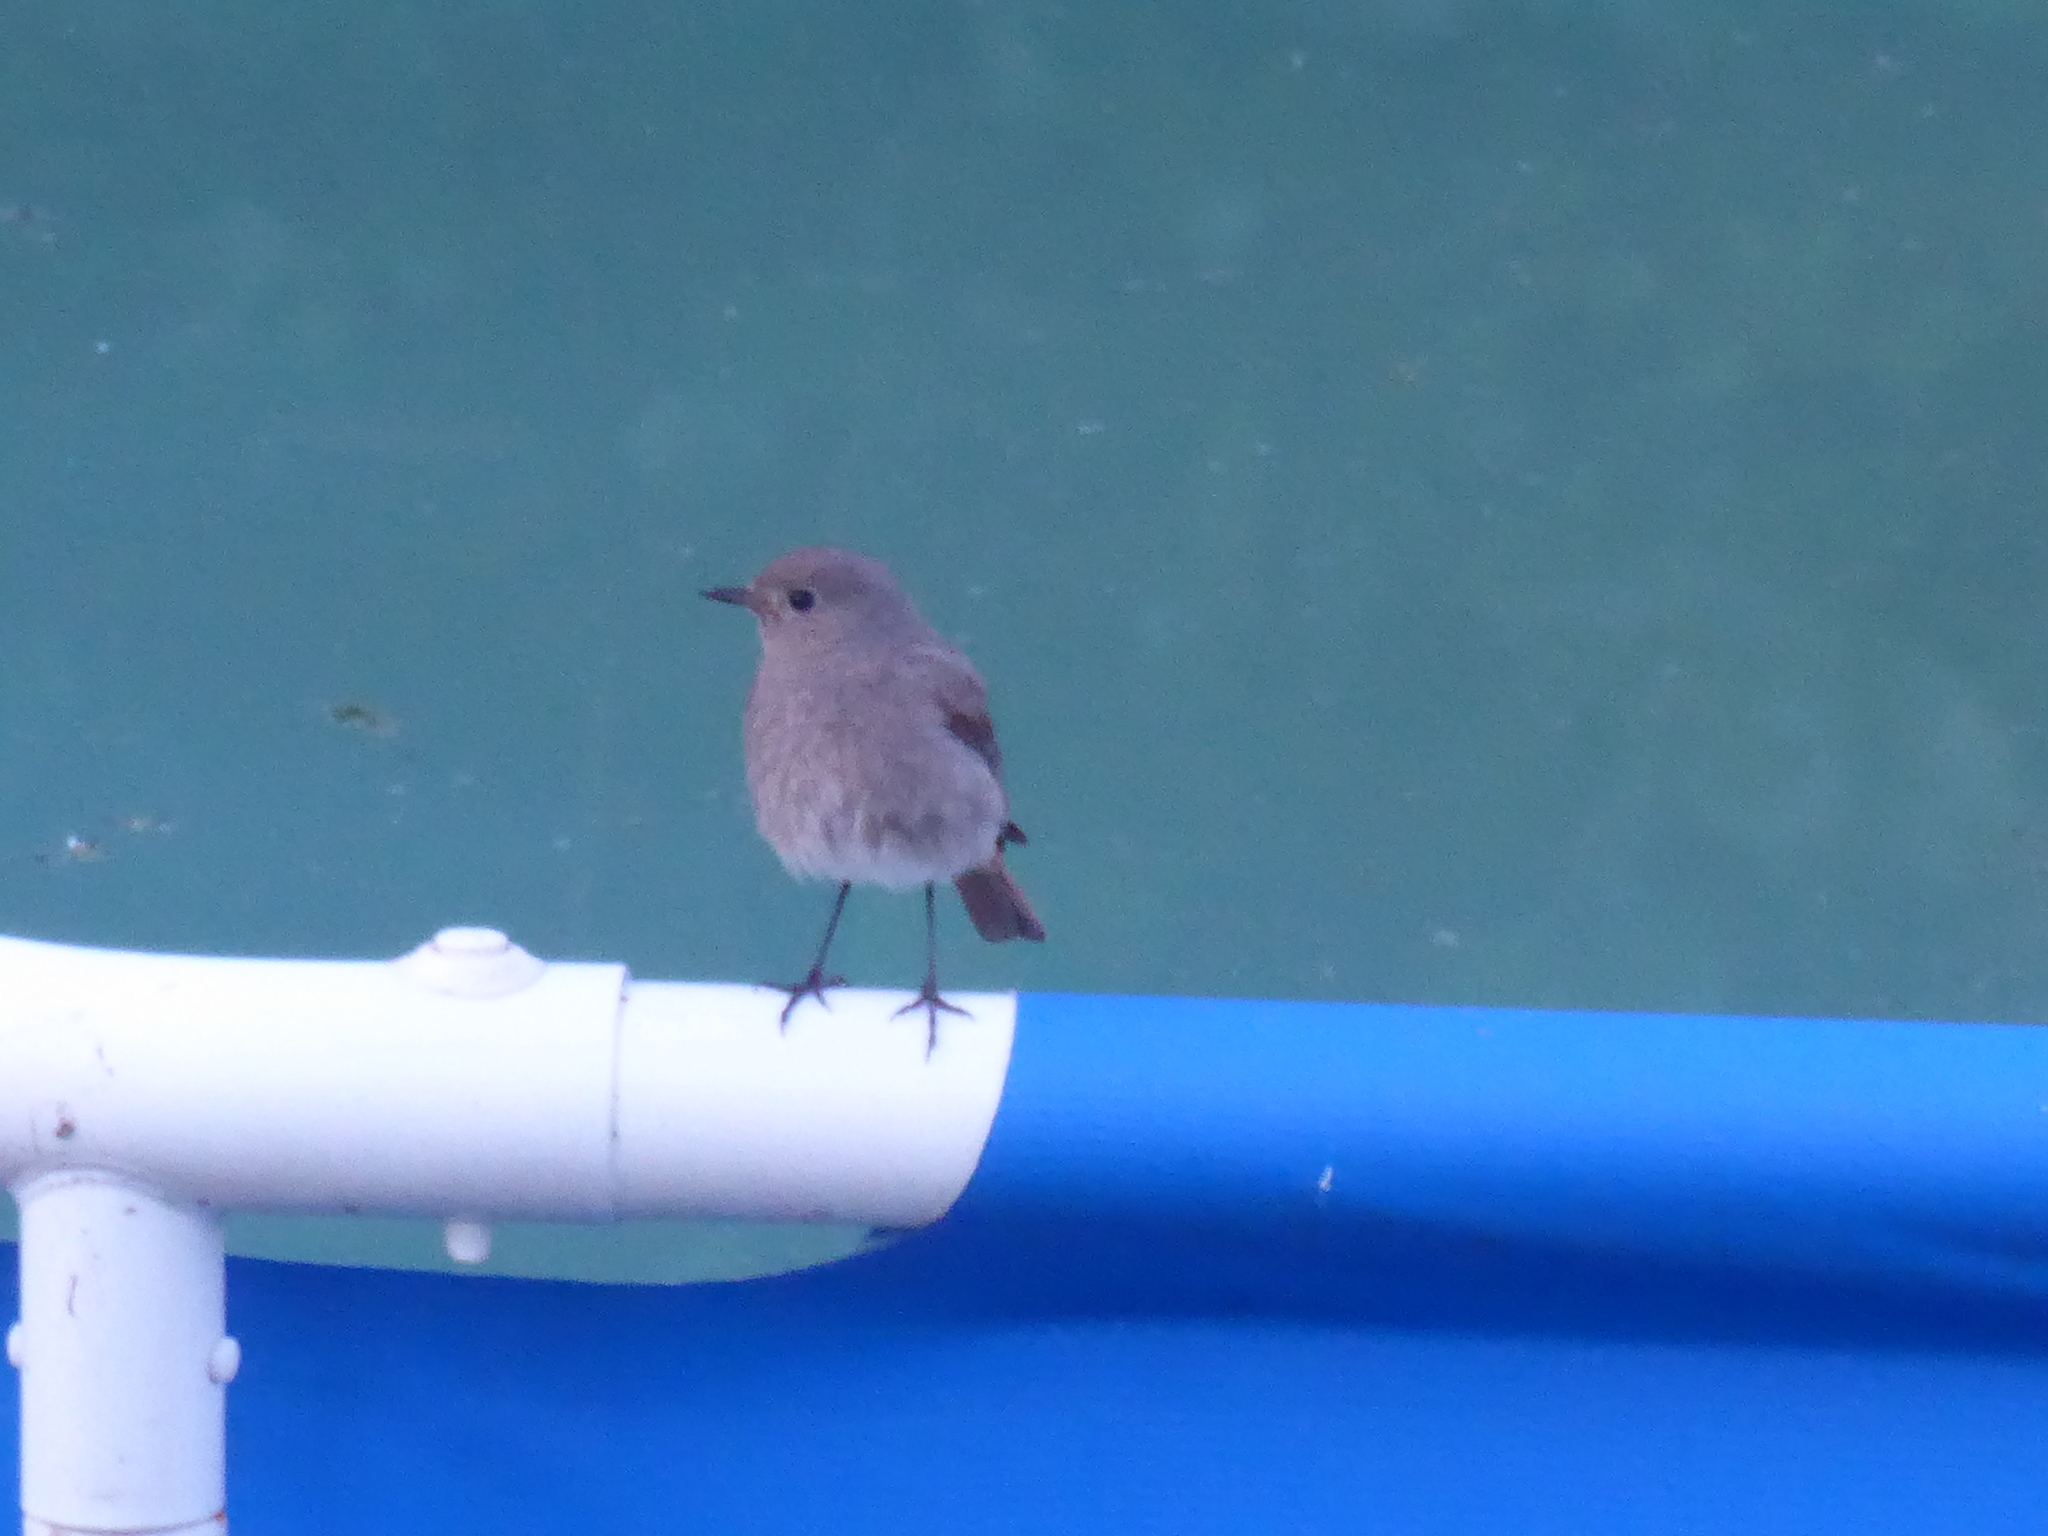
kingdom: Animalia
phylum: Chordata
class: Aves
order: Passeriformes
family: Muscicapidae
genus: Phoenicurus
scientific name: Phoenicurus ochruros
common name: Black redstart
